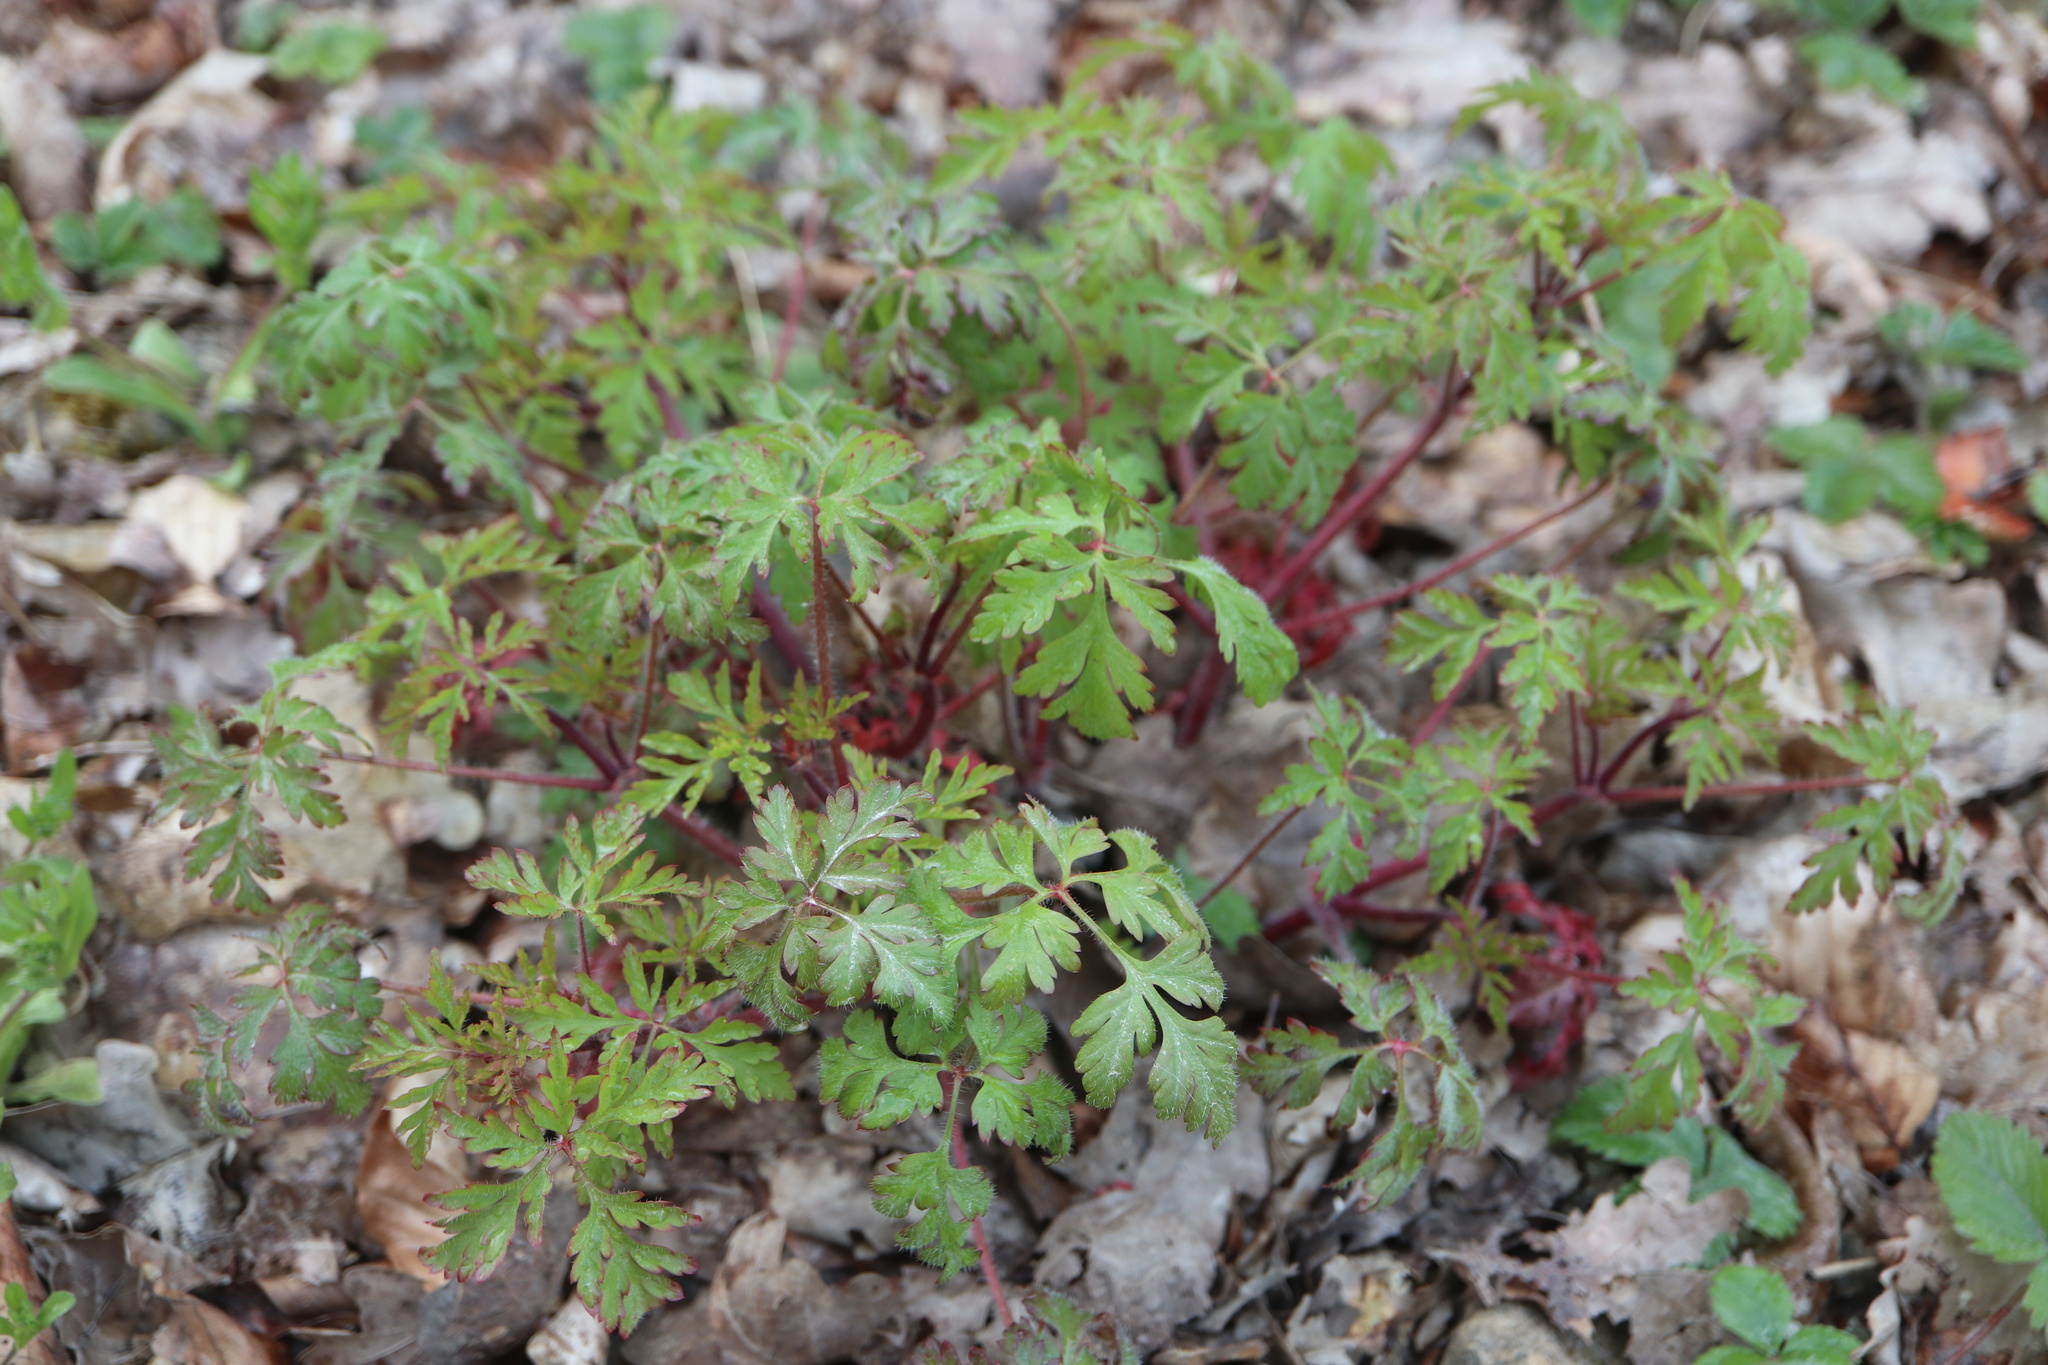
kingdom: Plantae
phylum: Tracheophyta
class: Magnoliopsida
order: Geraniales
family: Geraniaceae
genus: Geranium
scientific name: Geranium robertianum
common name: Herb-robert
